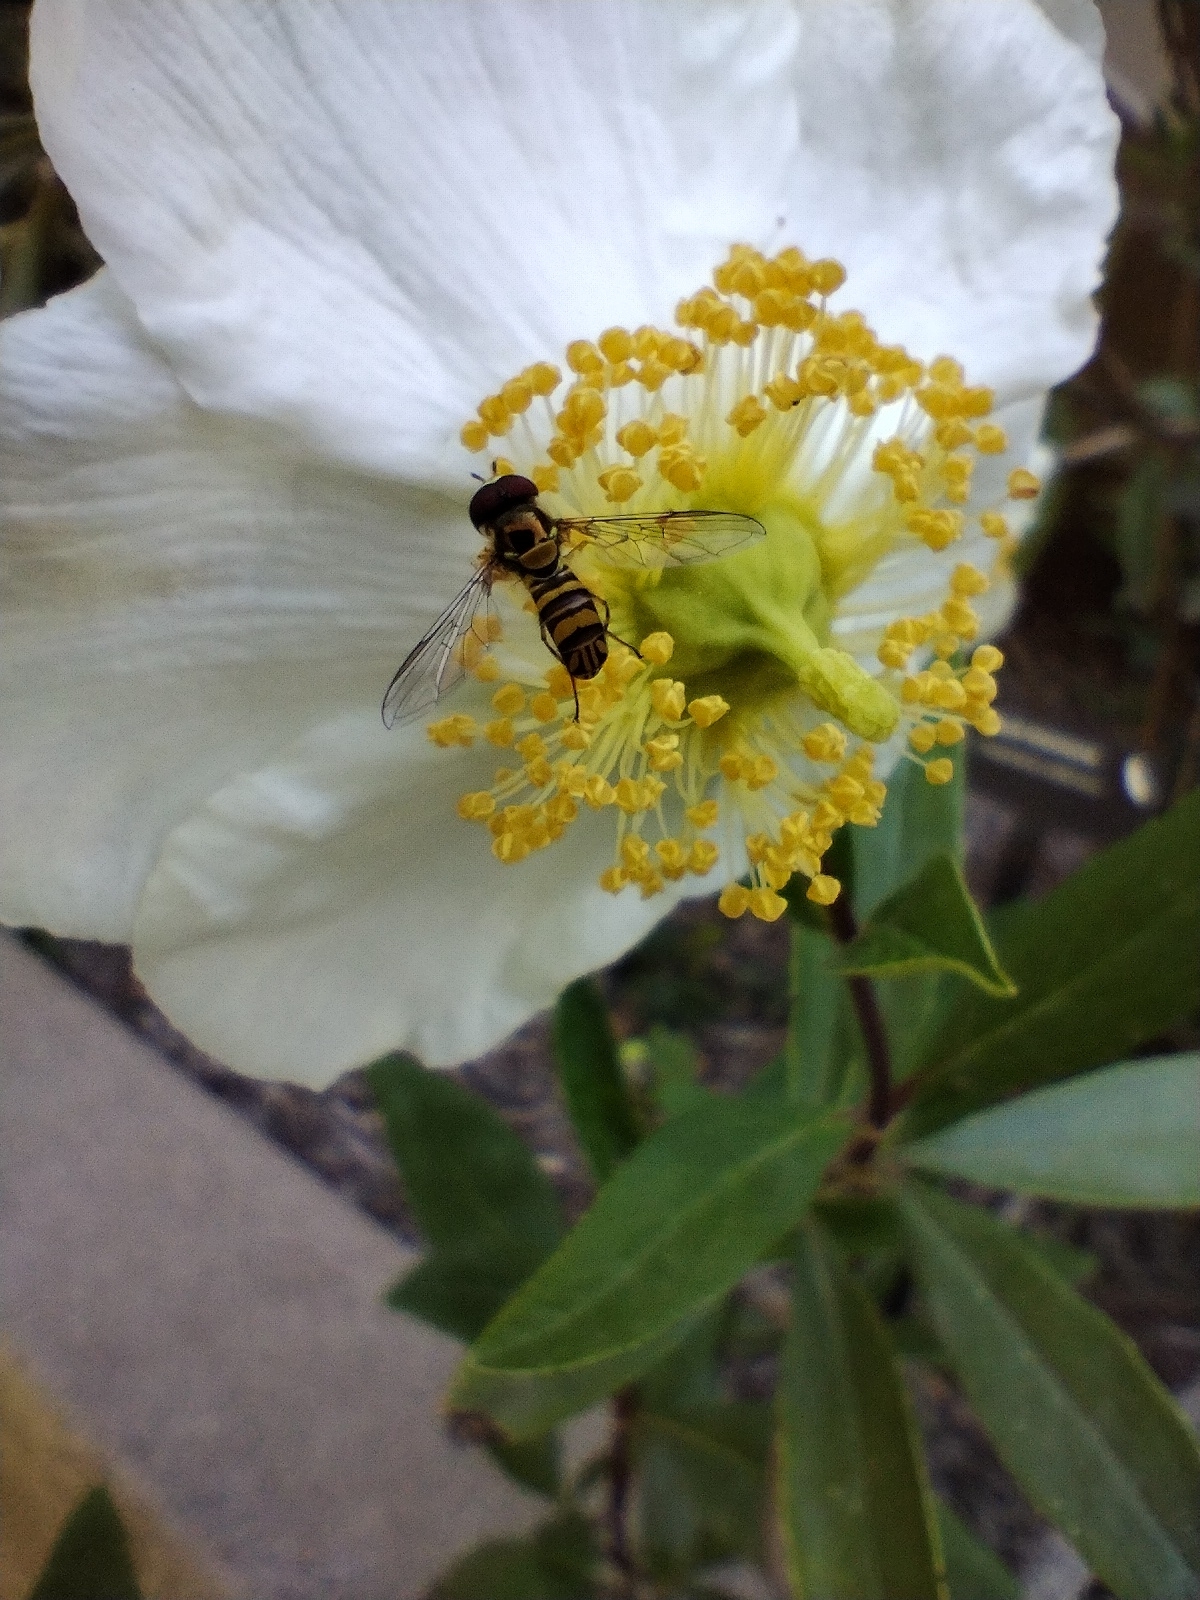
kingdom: Animalia
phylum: Arthropoda
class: Insecta
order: Diptera
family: Syrphidae
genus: Allograpta
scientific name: Allograpta obliqua
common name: Common oblique syrphid
